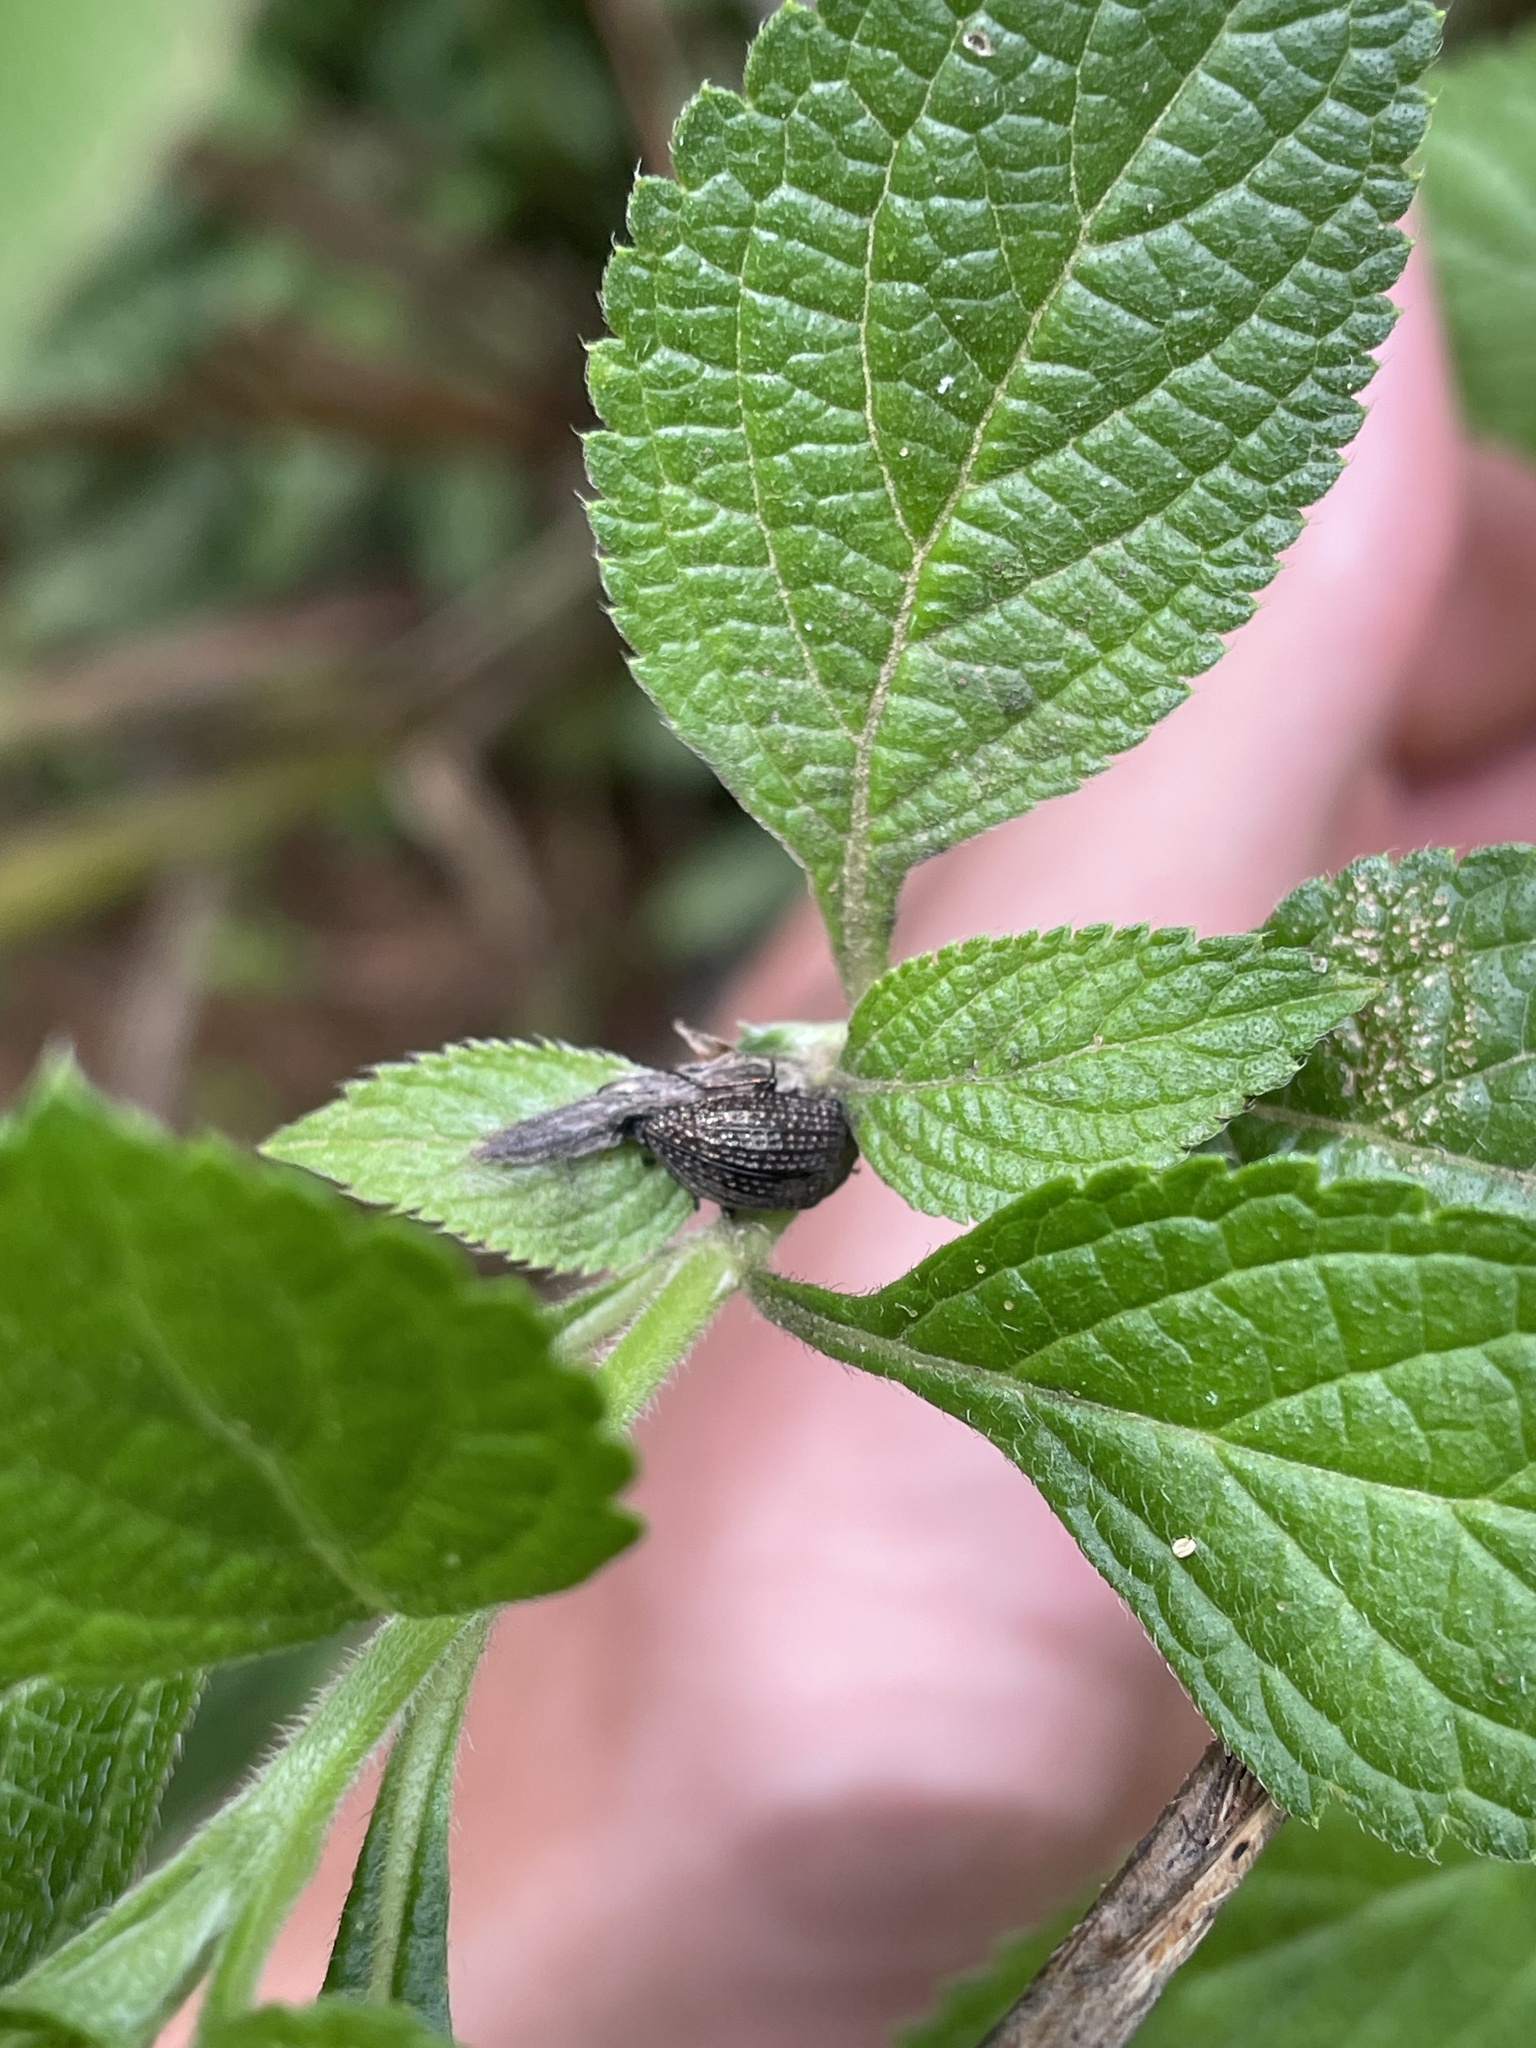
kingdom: Animalia
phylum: Arthropoda
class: Insecta
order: Coleoptera
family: Tenebrionidae
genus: Tarpela
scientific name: Tarpela thoracica
